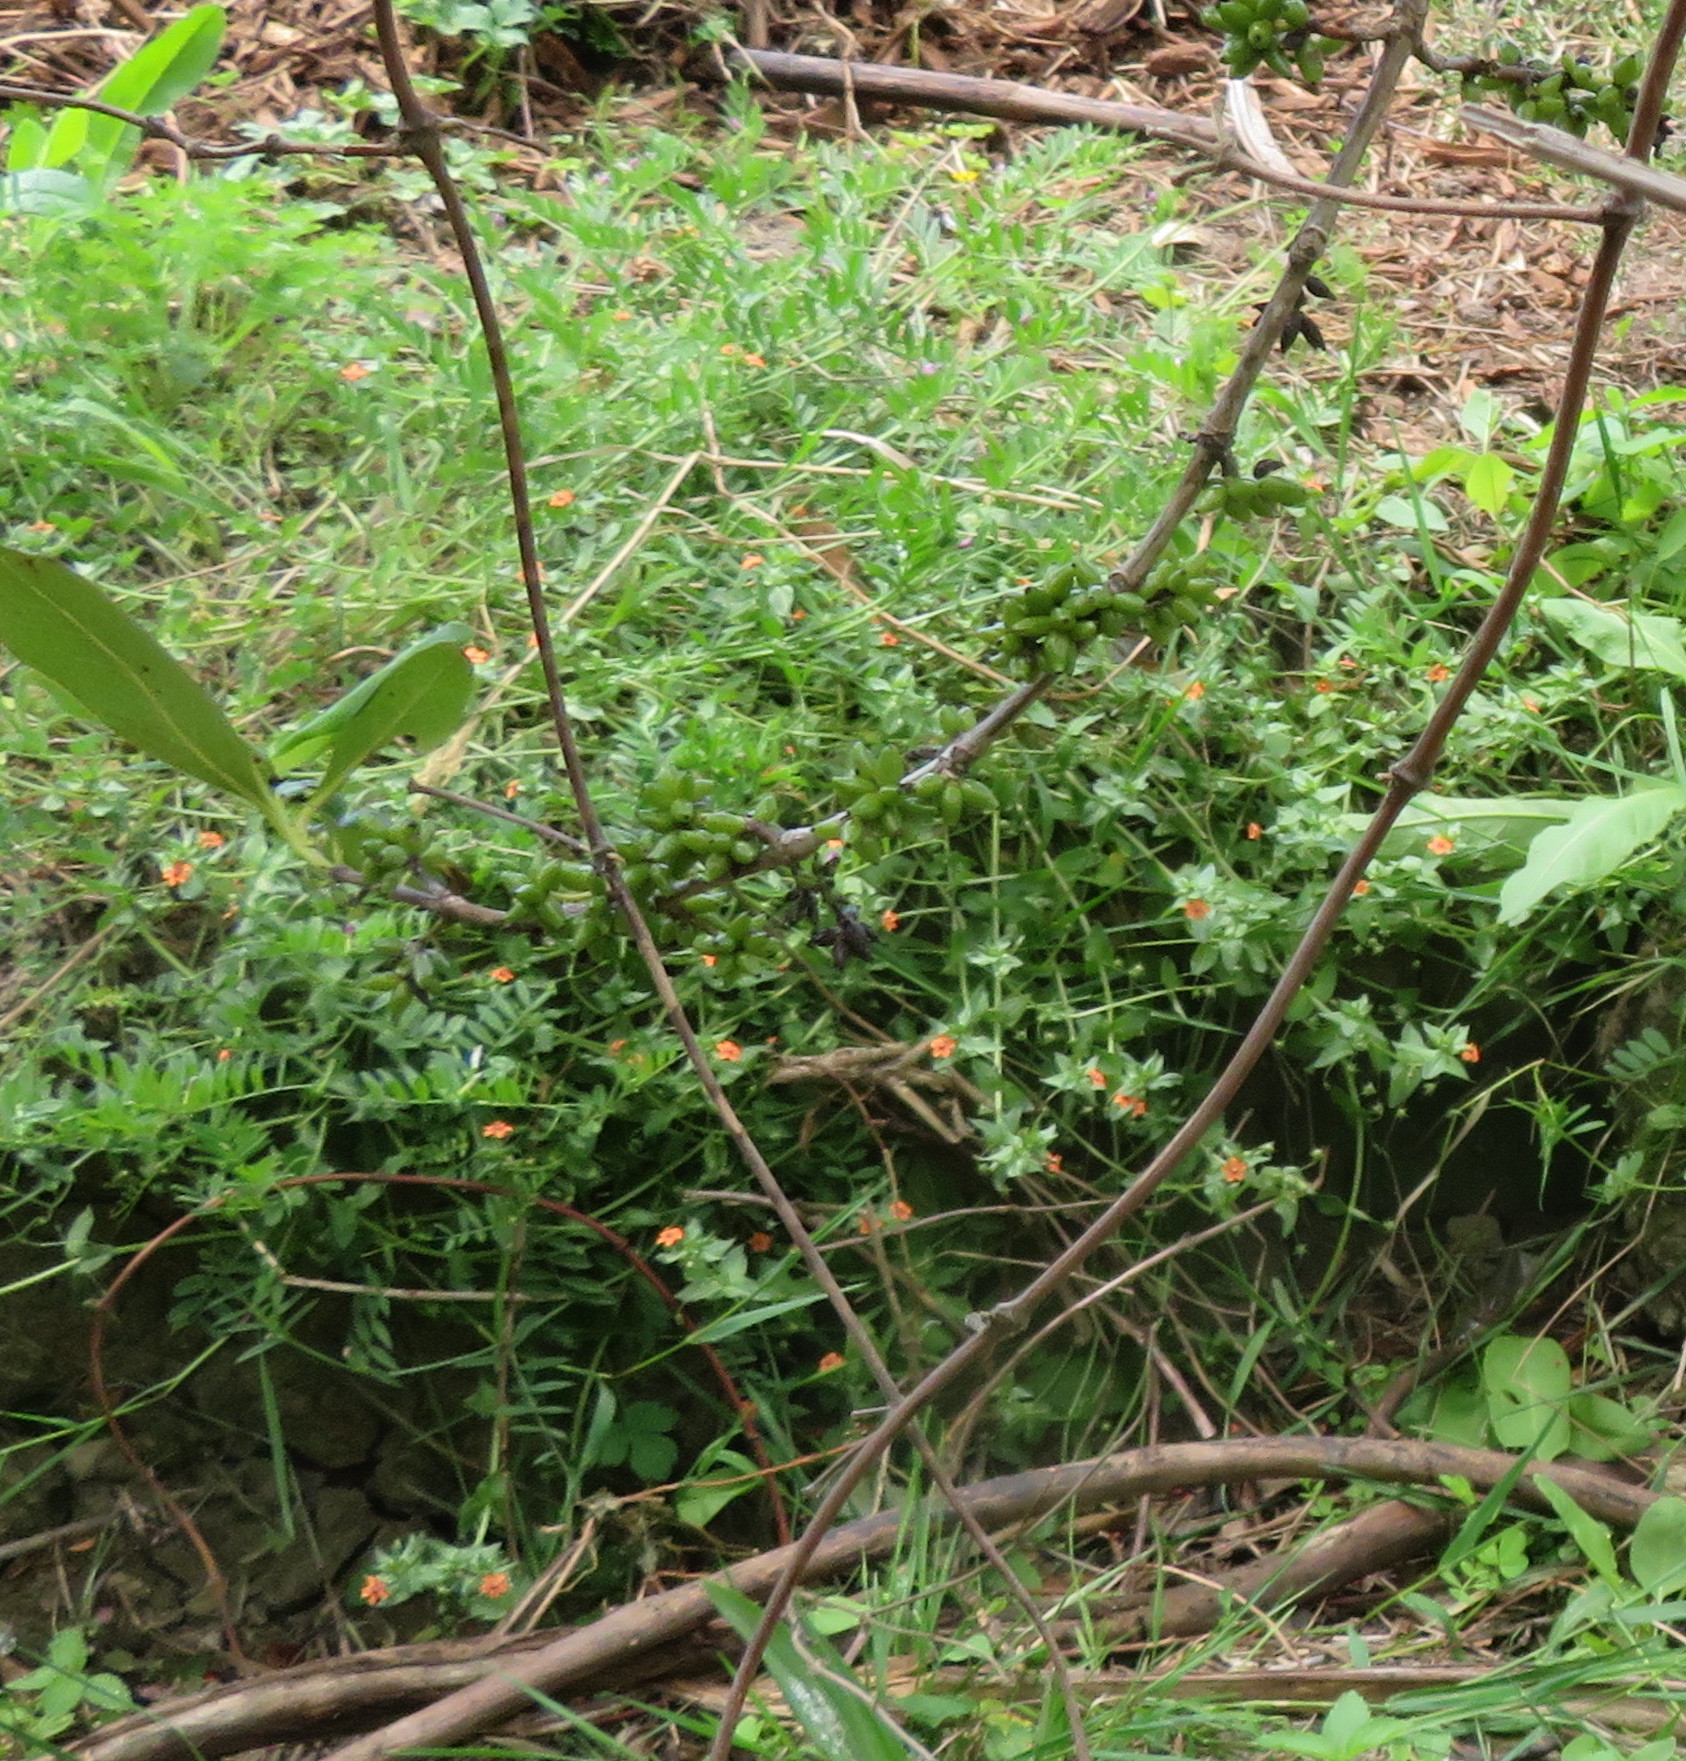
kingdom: Plantae
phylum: Tracheophyta
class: Magnoliopsida
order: Ericales
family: Primulaceae
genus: Lysimachia
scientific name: Lysimachia arvensis
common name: Scarlet pimpernel
